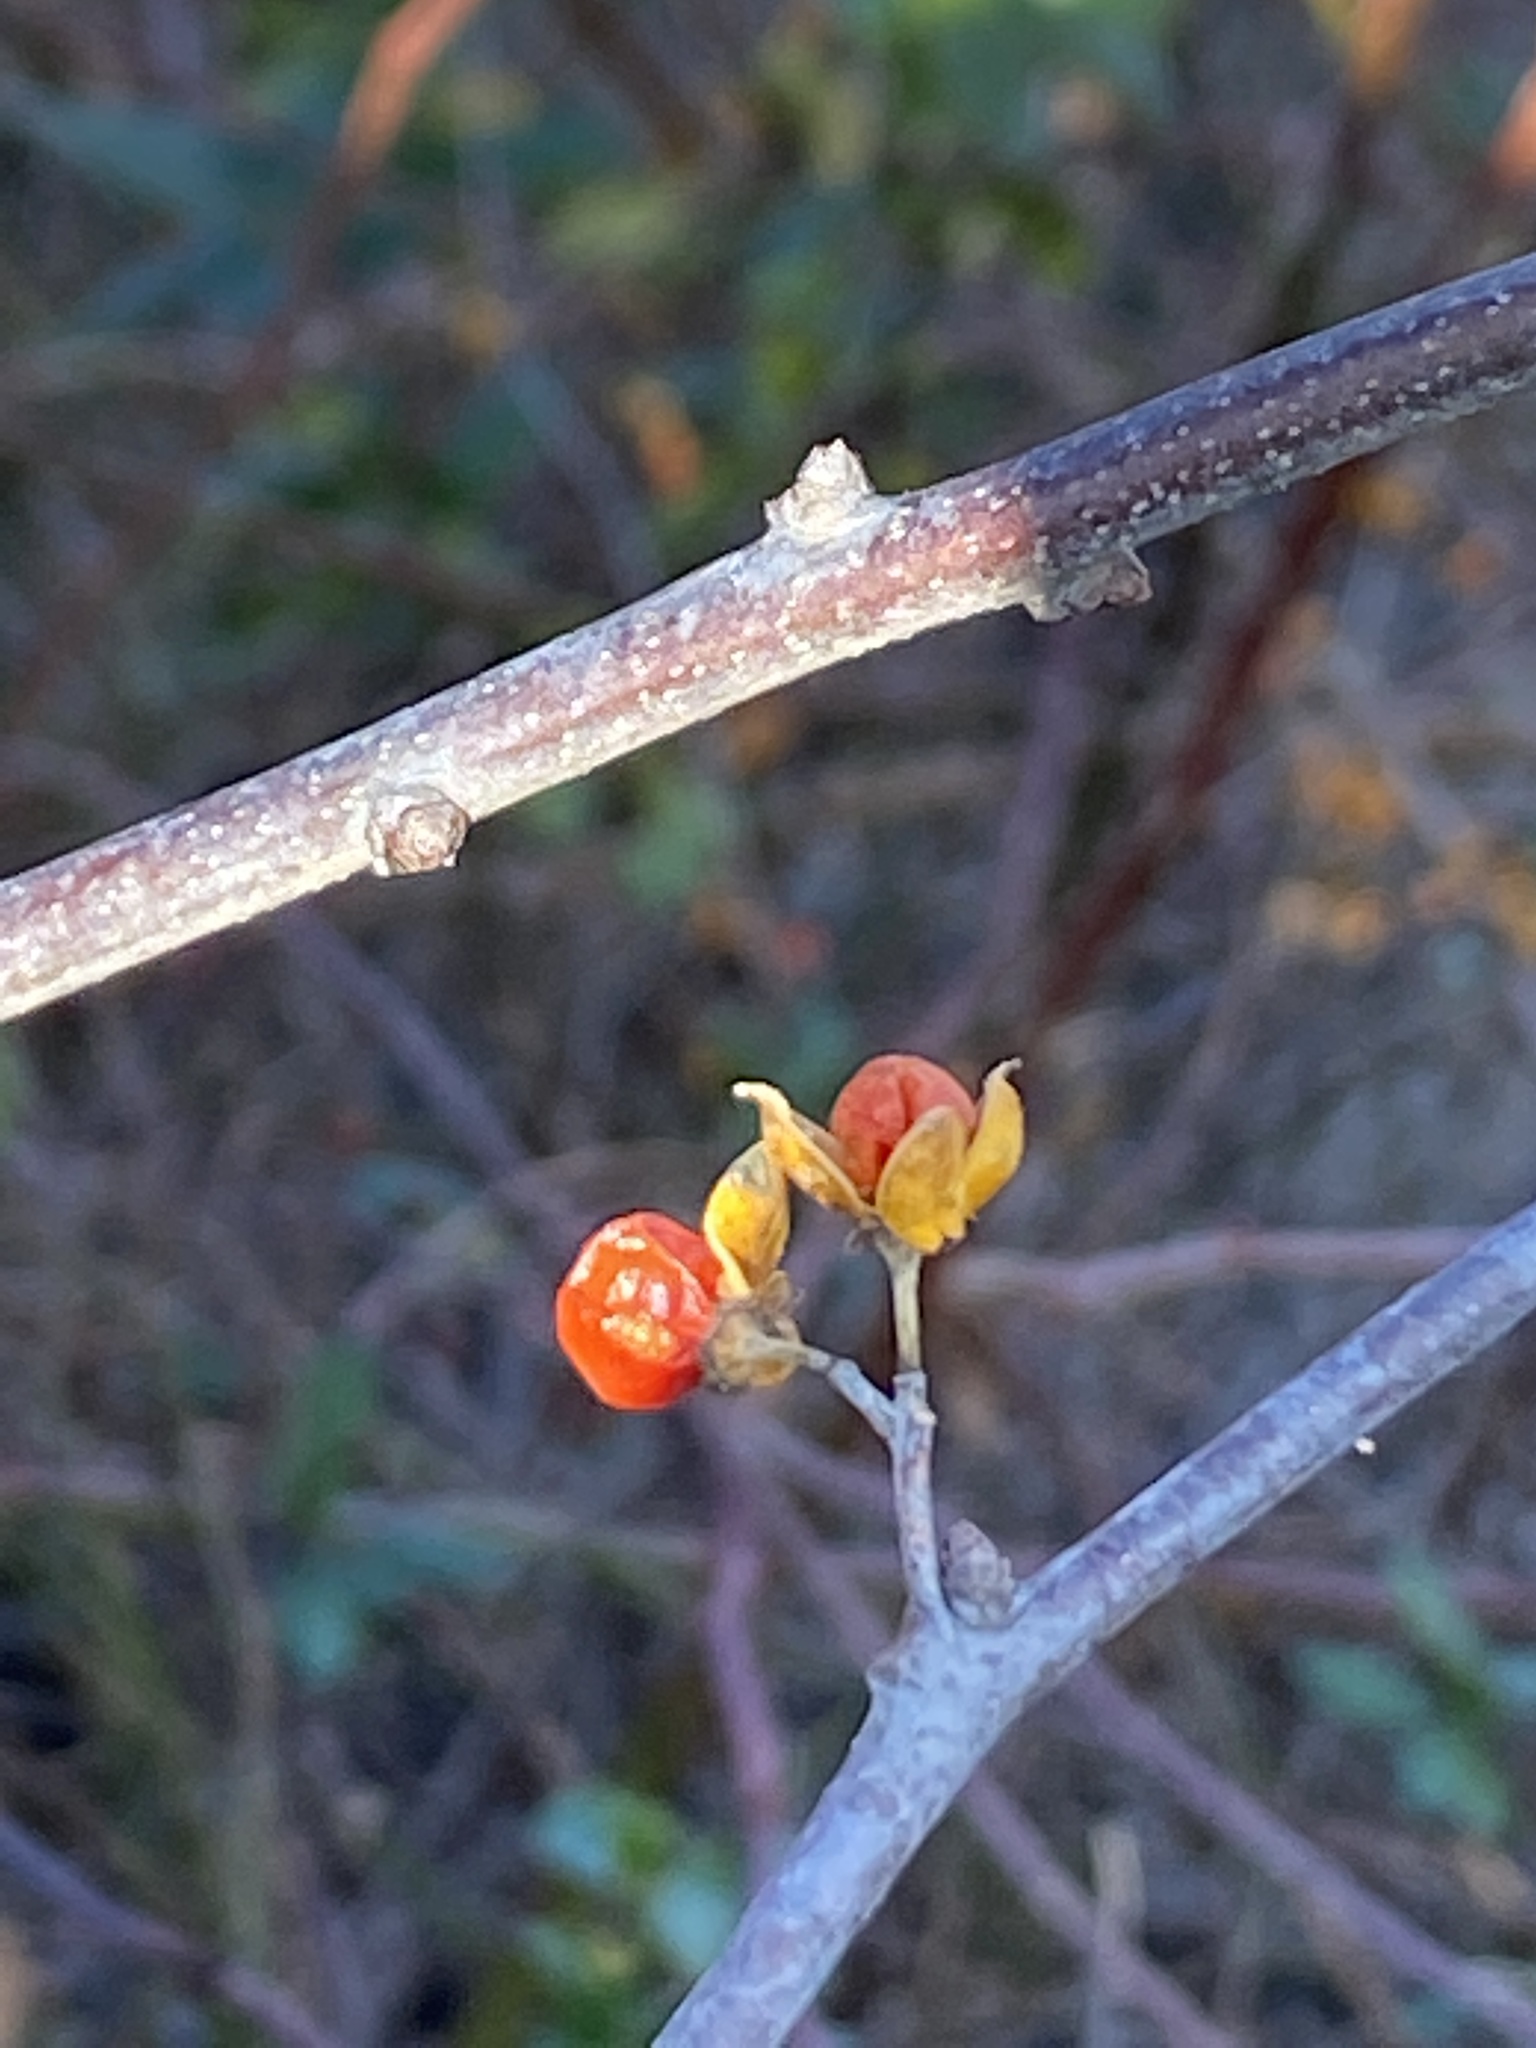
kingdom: Plantae
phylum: Tracheophyta
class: Magnoliopsida
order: Celastrales
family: Celastraceae
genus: Celastrus
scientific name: Celastrus orbiculatus
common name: Oriental bittersweet
